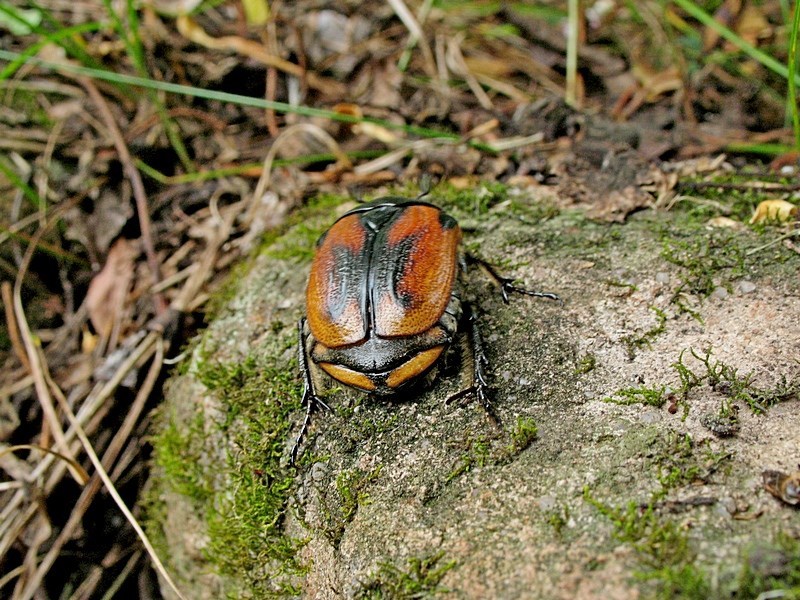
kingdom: Animalia
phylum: Arthropoda
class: Insecta
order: Coleoptera
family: Scarabaeidae
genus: Chondropyga
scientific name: Chondropyga dorsalis
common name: Cowboy beetle
